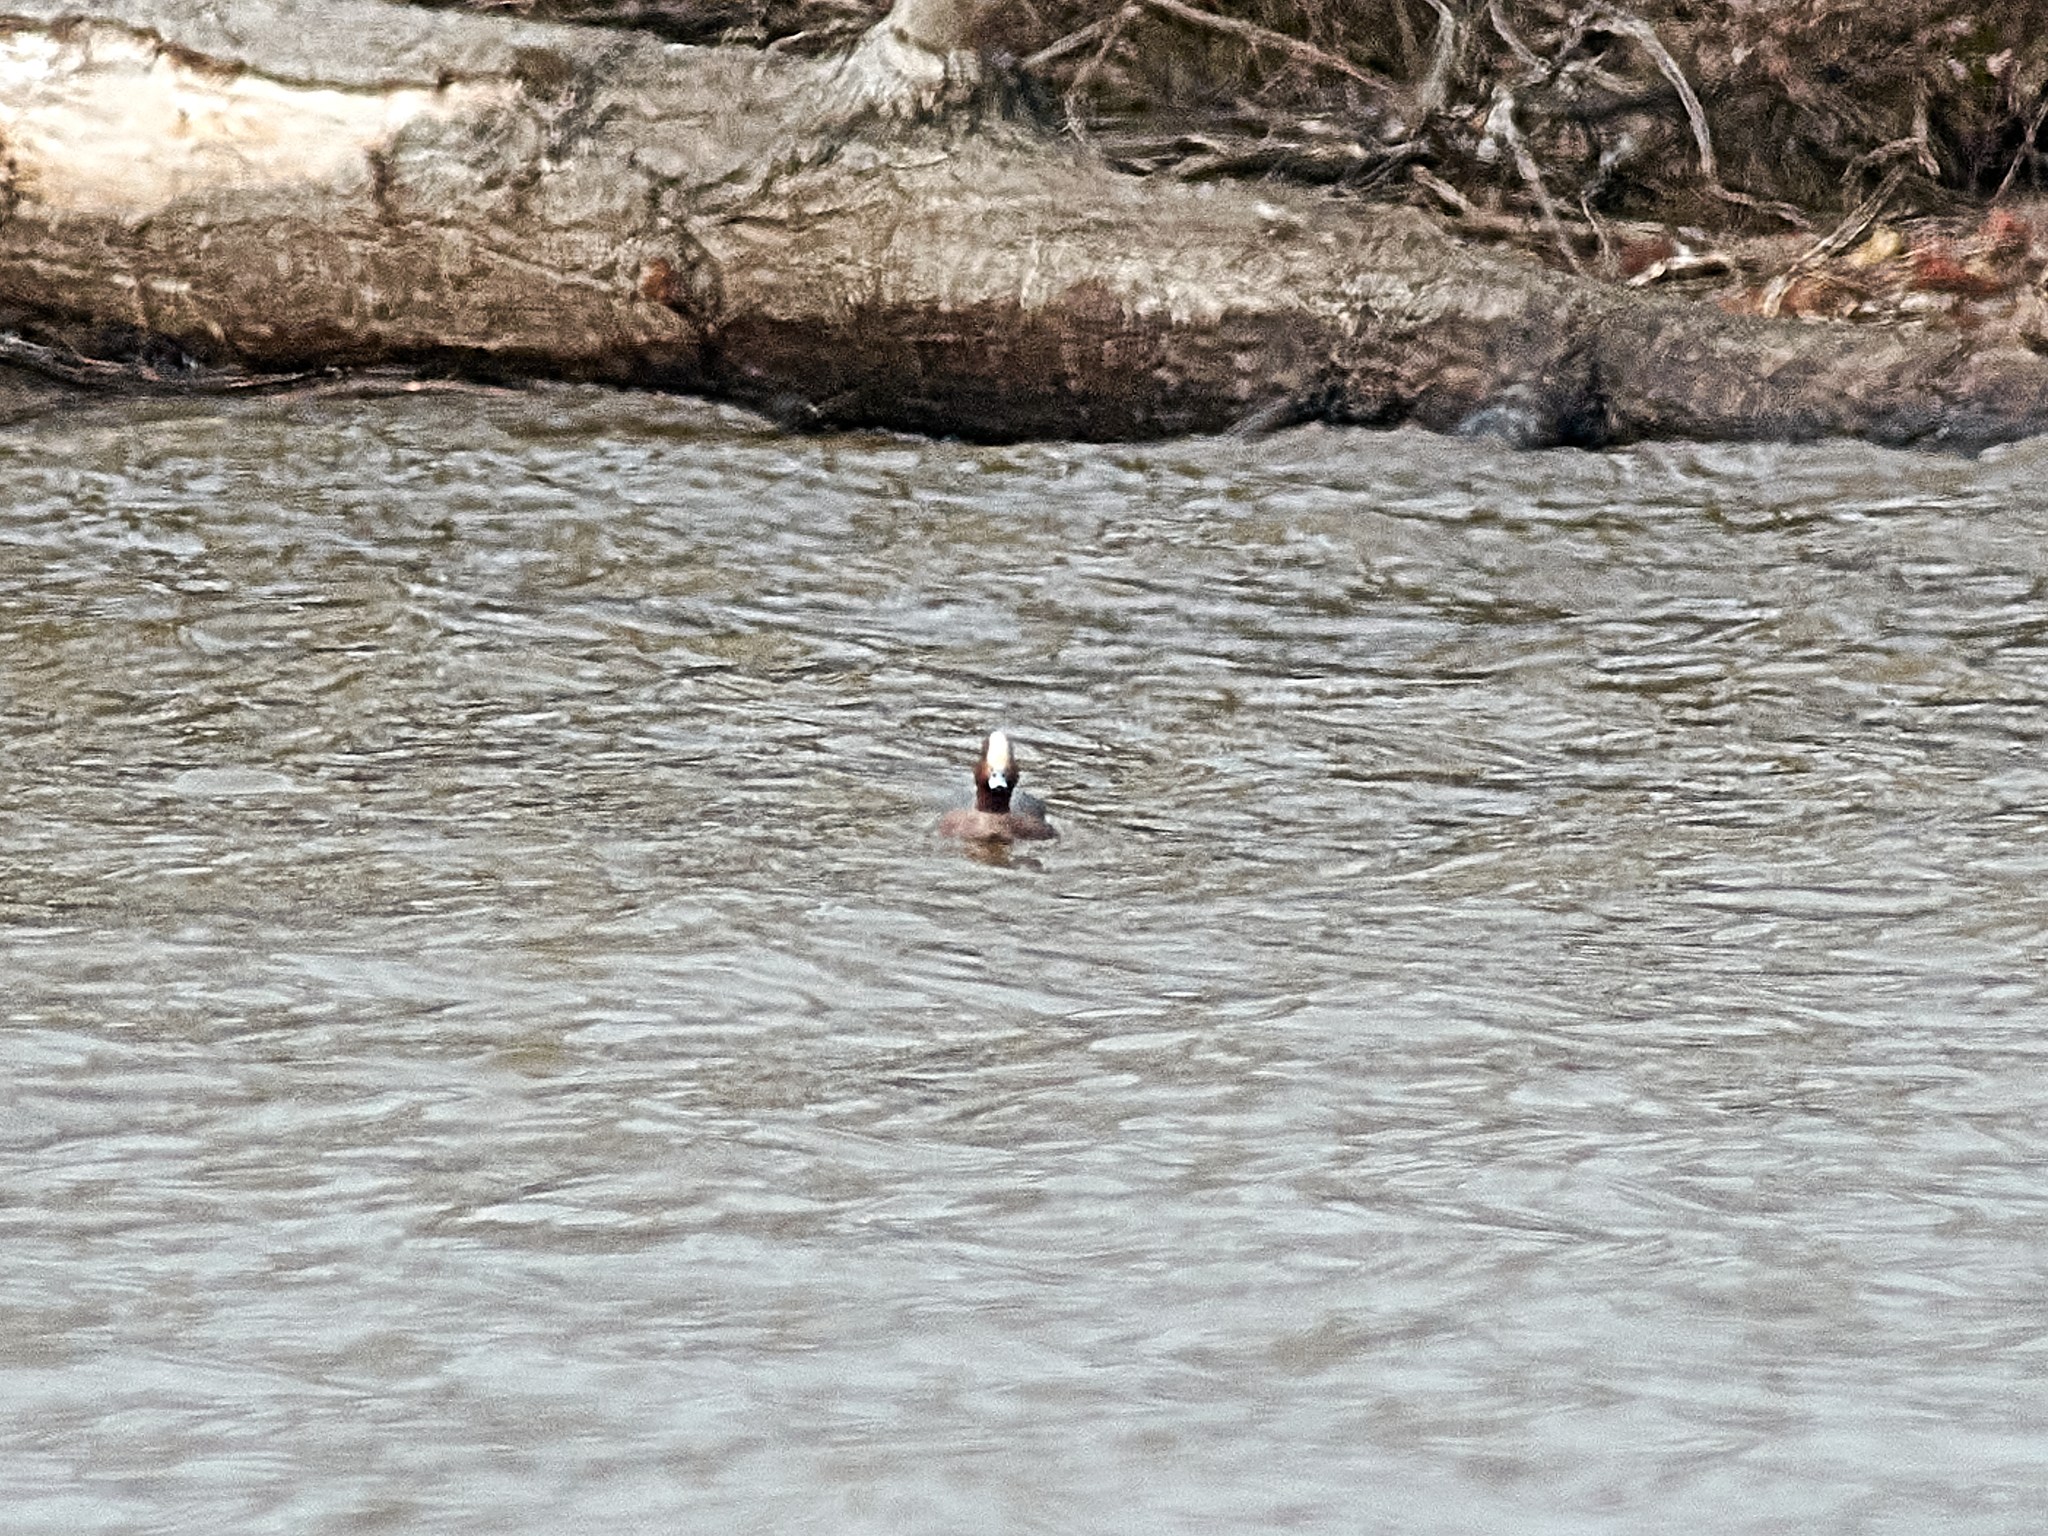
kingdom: Animalia
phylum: Chordata
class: Aves
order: Anseriformes
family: Anatidae
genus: Mareca
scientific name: Mareca penelope
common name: Eurasian wigeon
